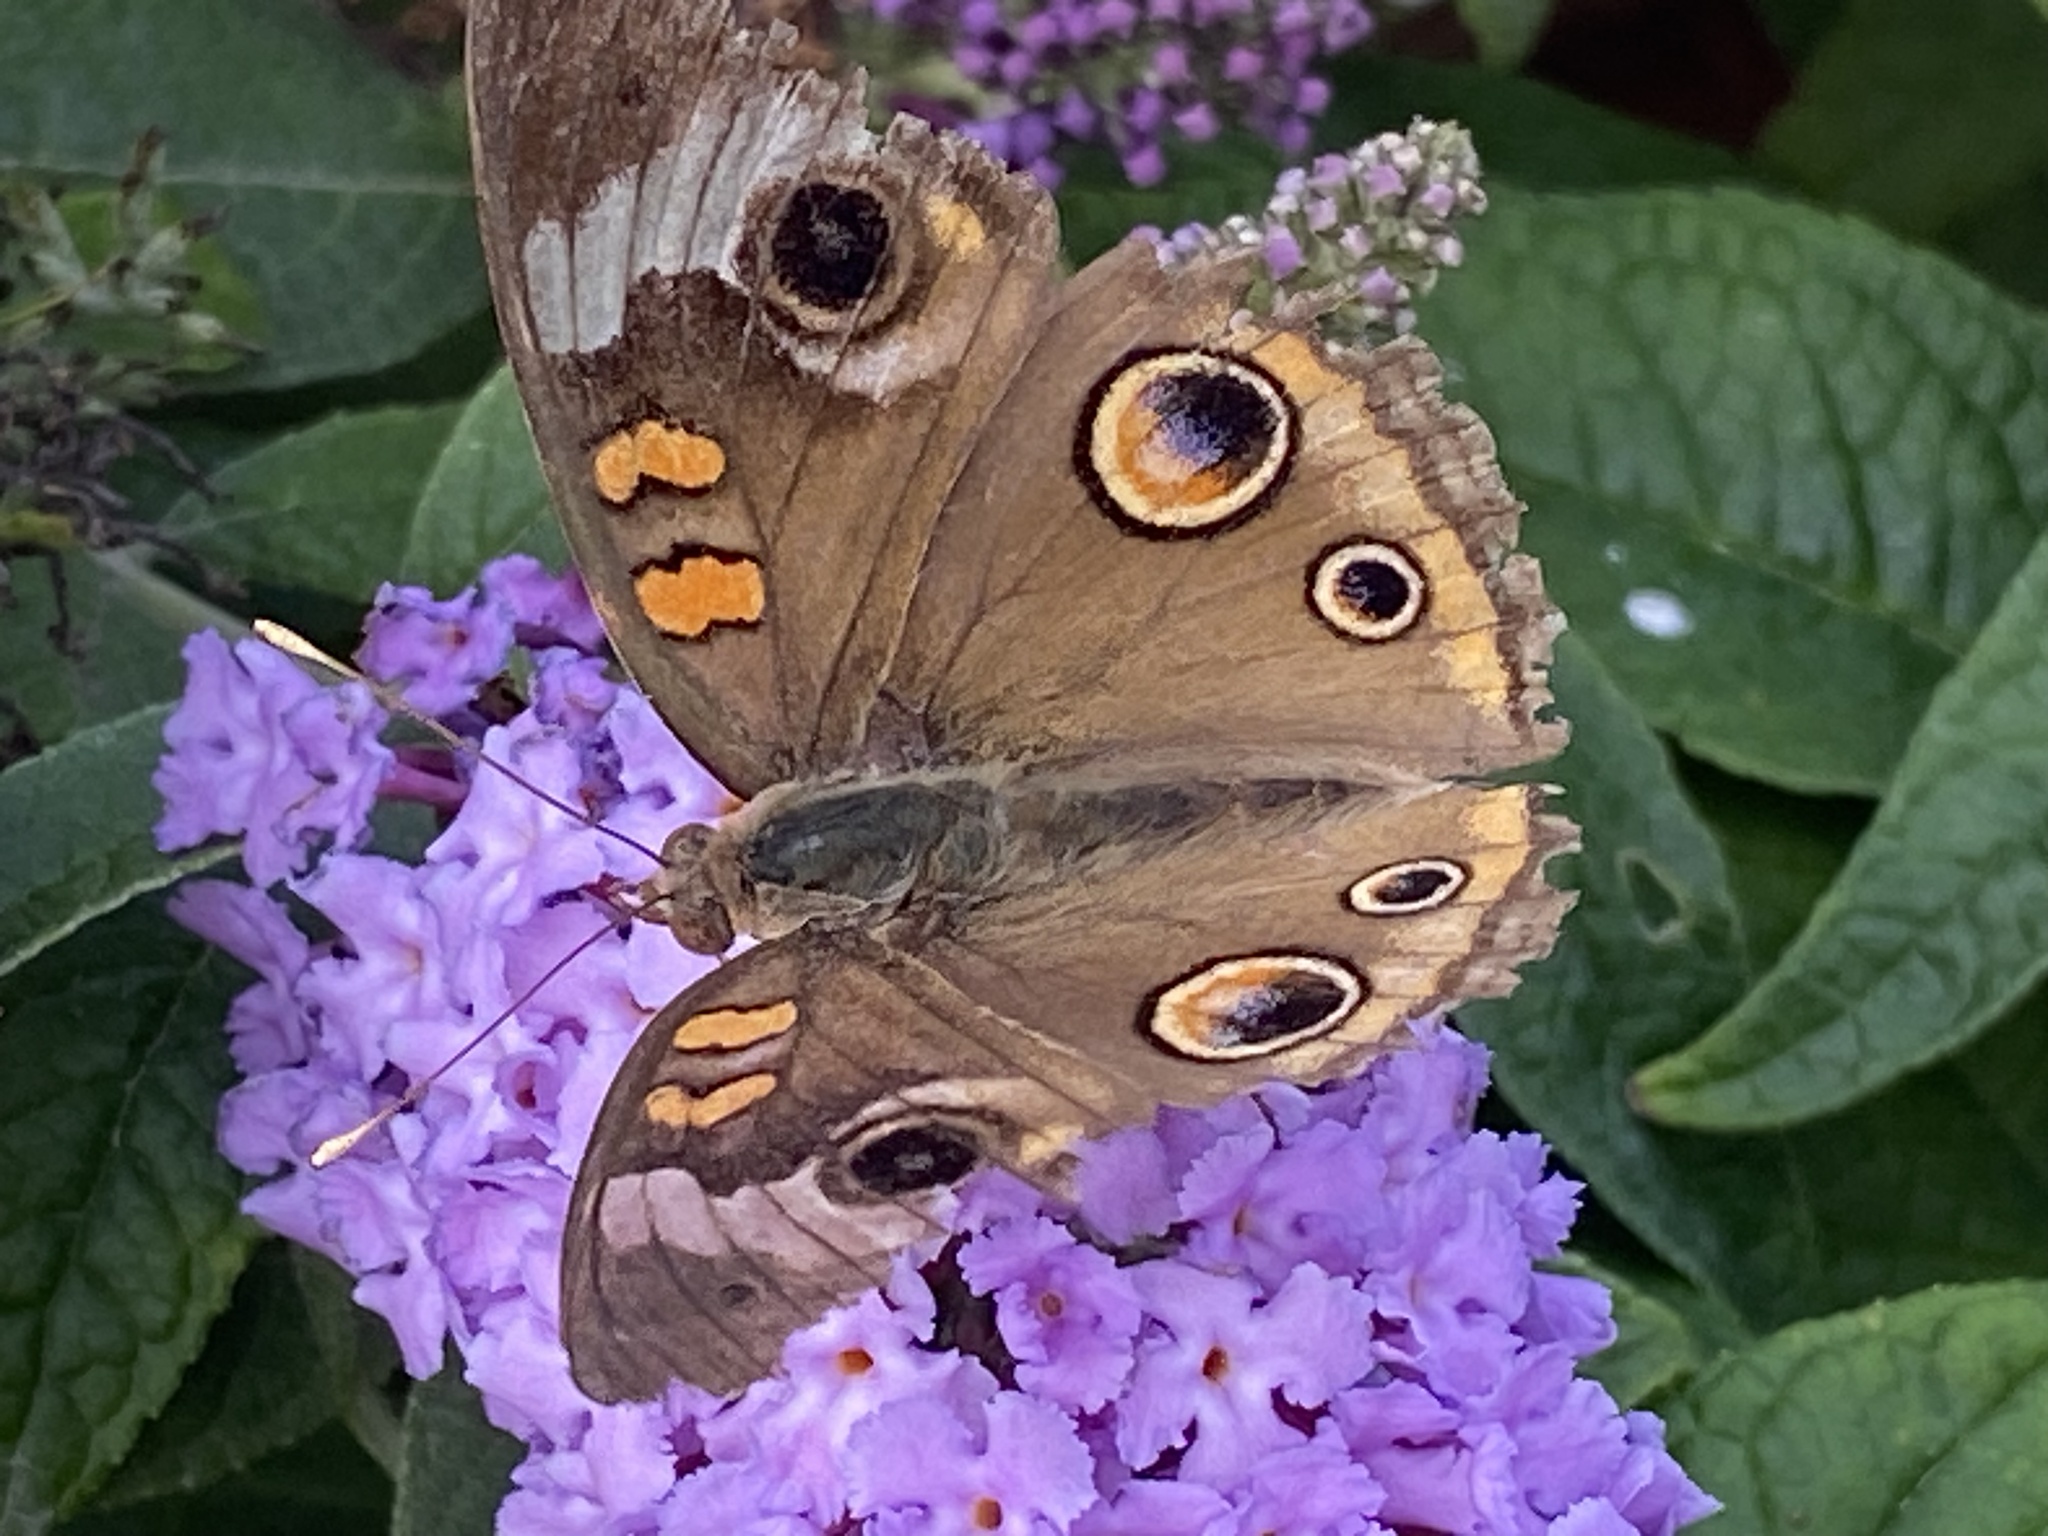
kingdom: Animalia
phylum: Arthropoda
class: Insecta
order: Lepidoptera
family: Nymphalidae
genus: Junonia
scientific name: Junonia coenia
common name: Common buckeye
